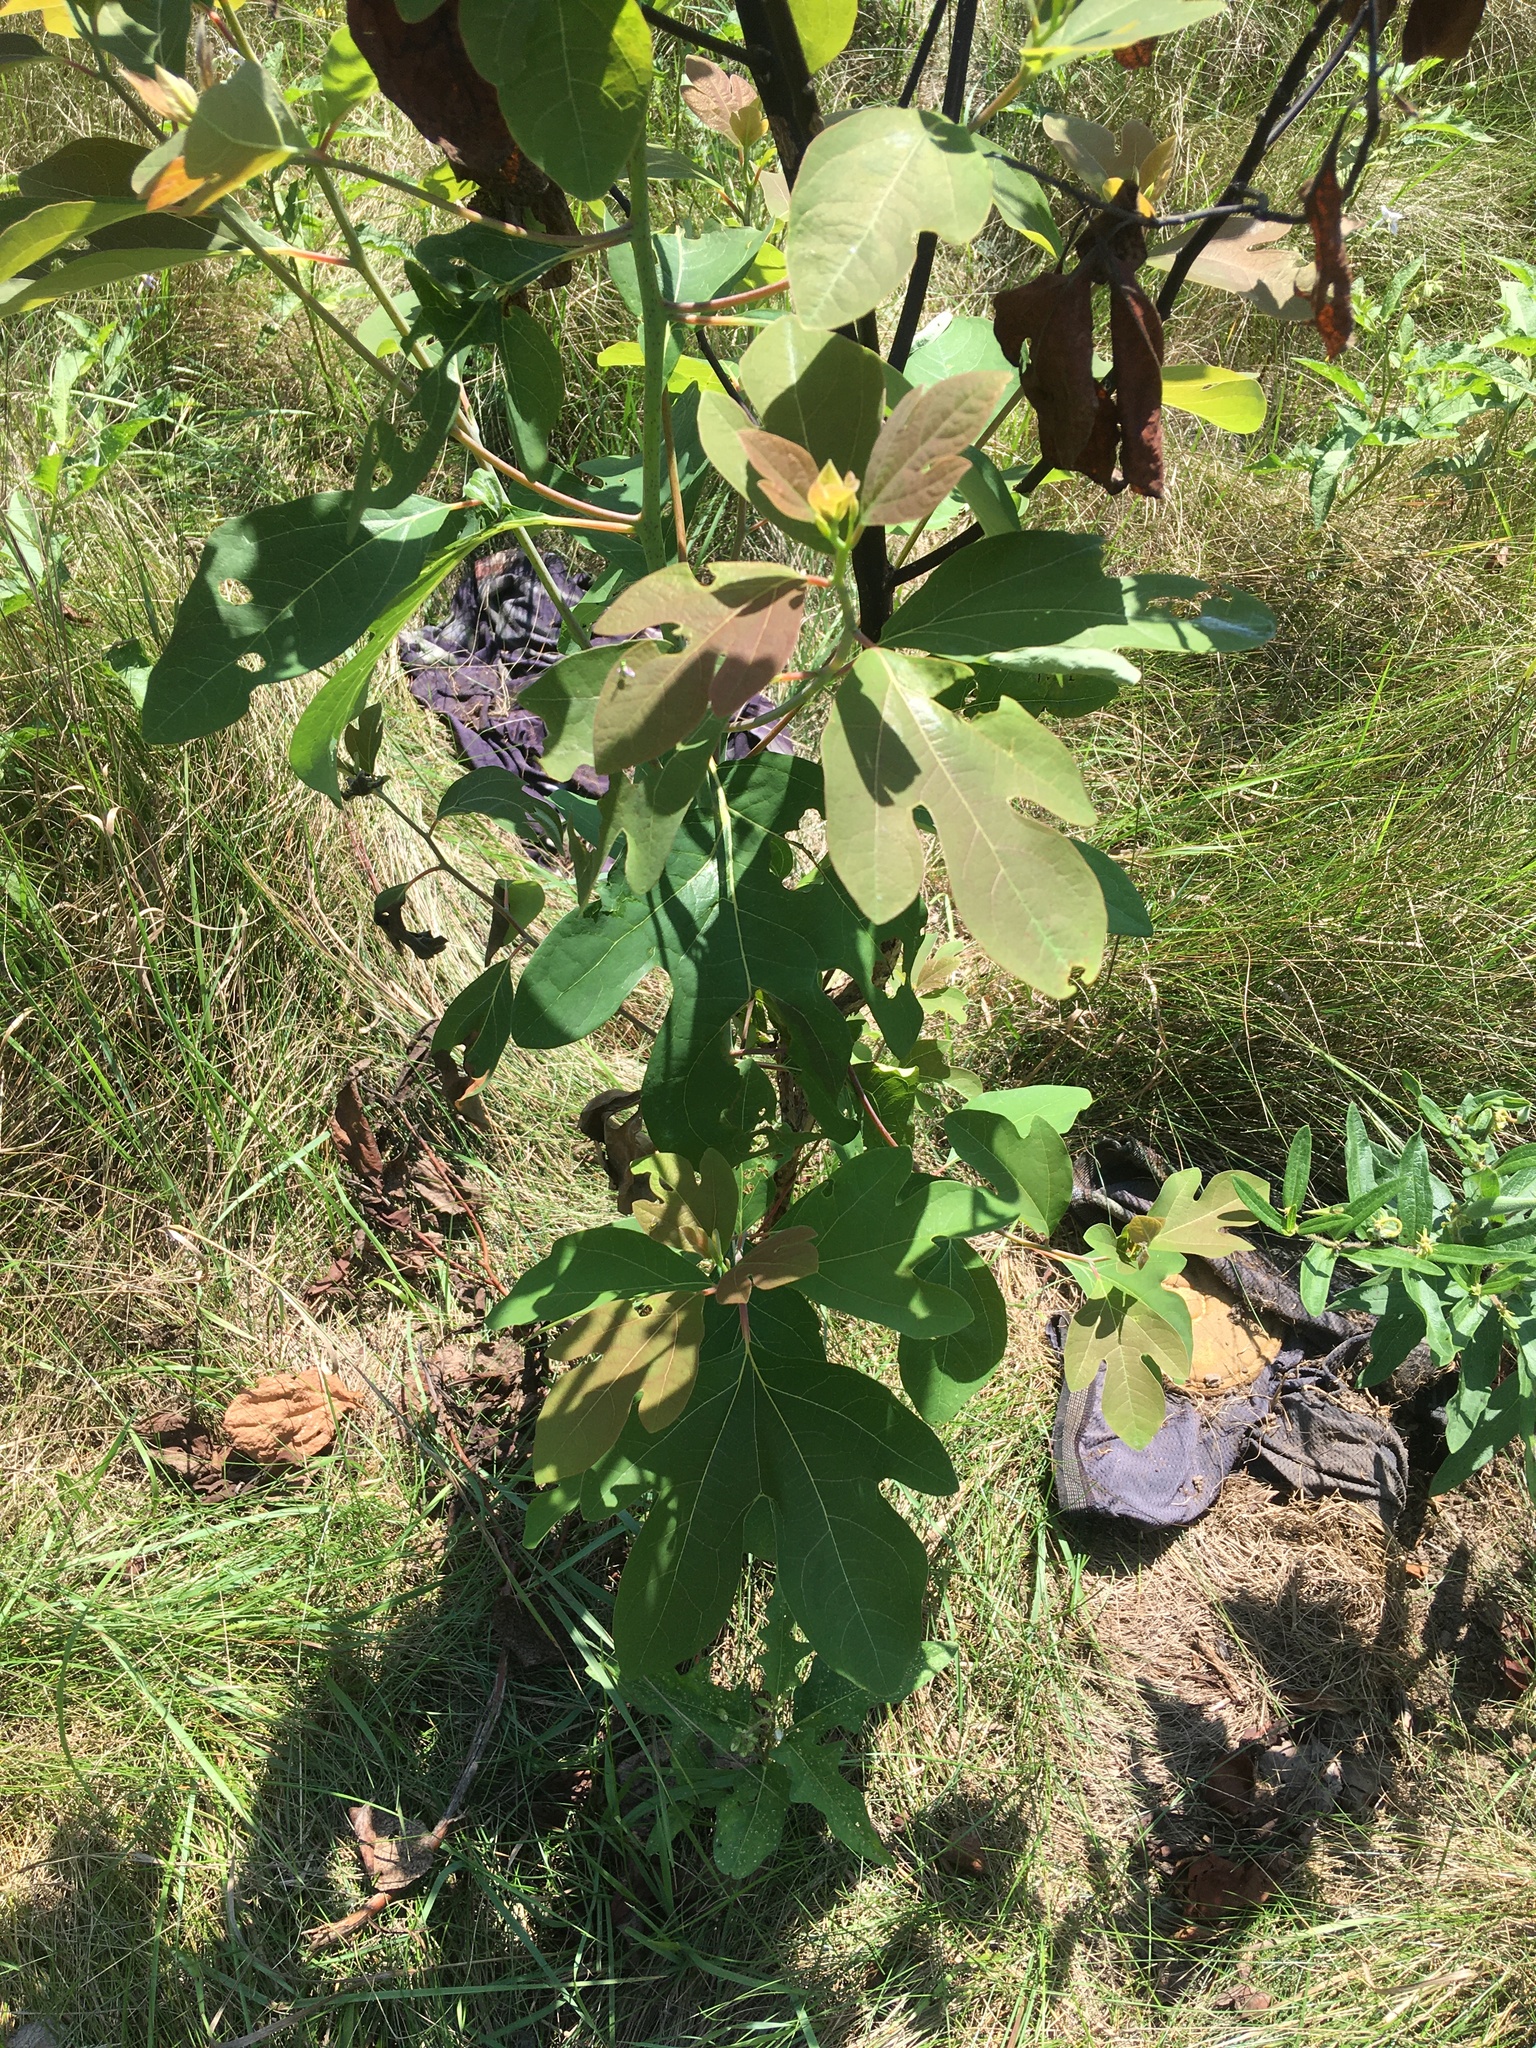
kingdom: Plantae
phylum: Tracheophyta
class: Magnoliopsida
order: Laurales
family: Lauraceae
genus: Sassafras
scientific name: Sassafras albidum
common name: Sassafras
